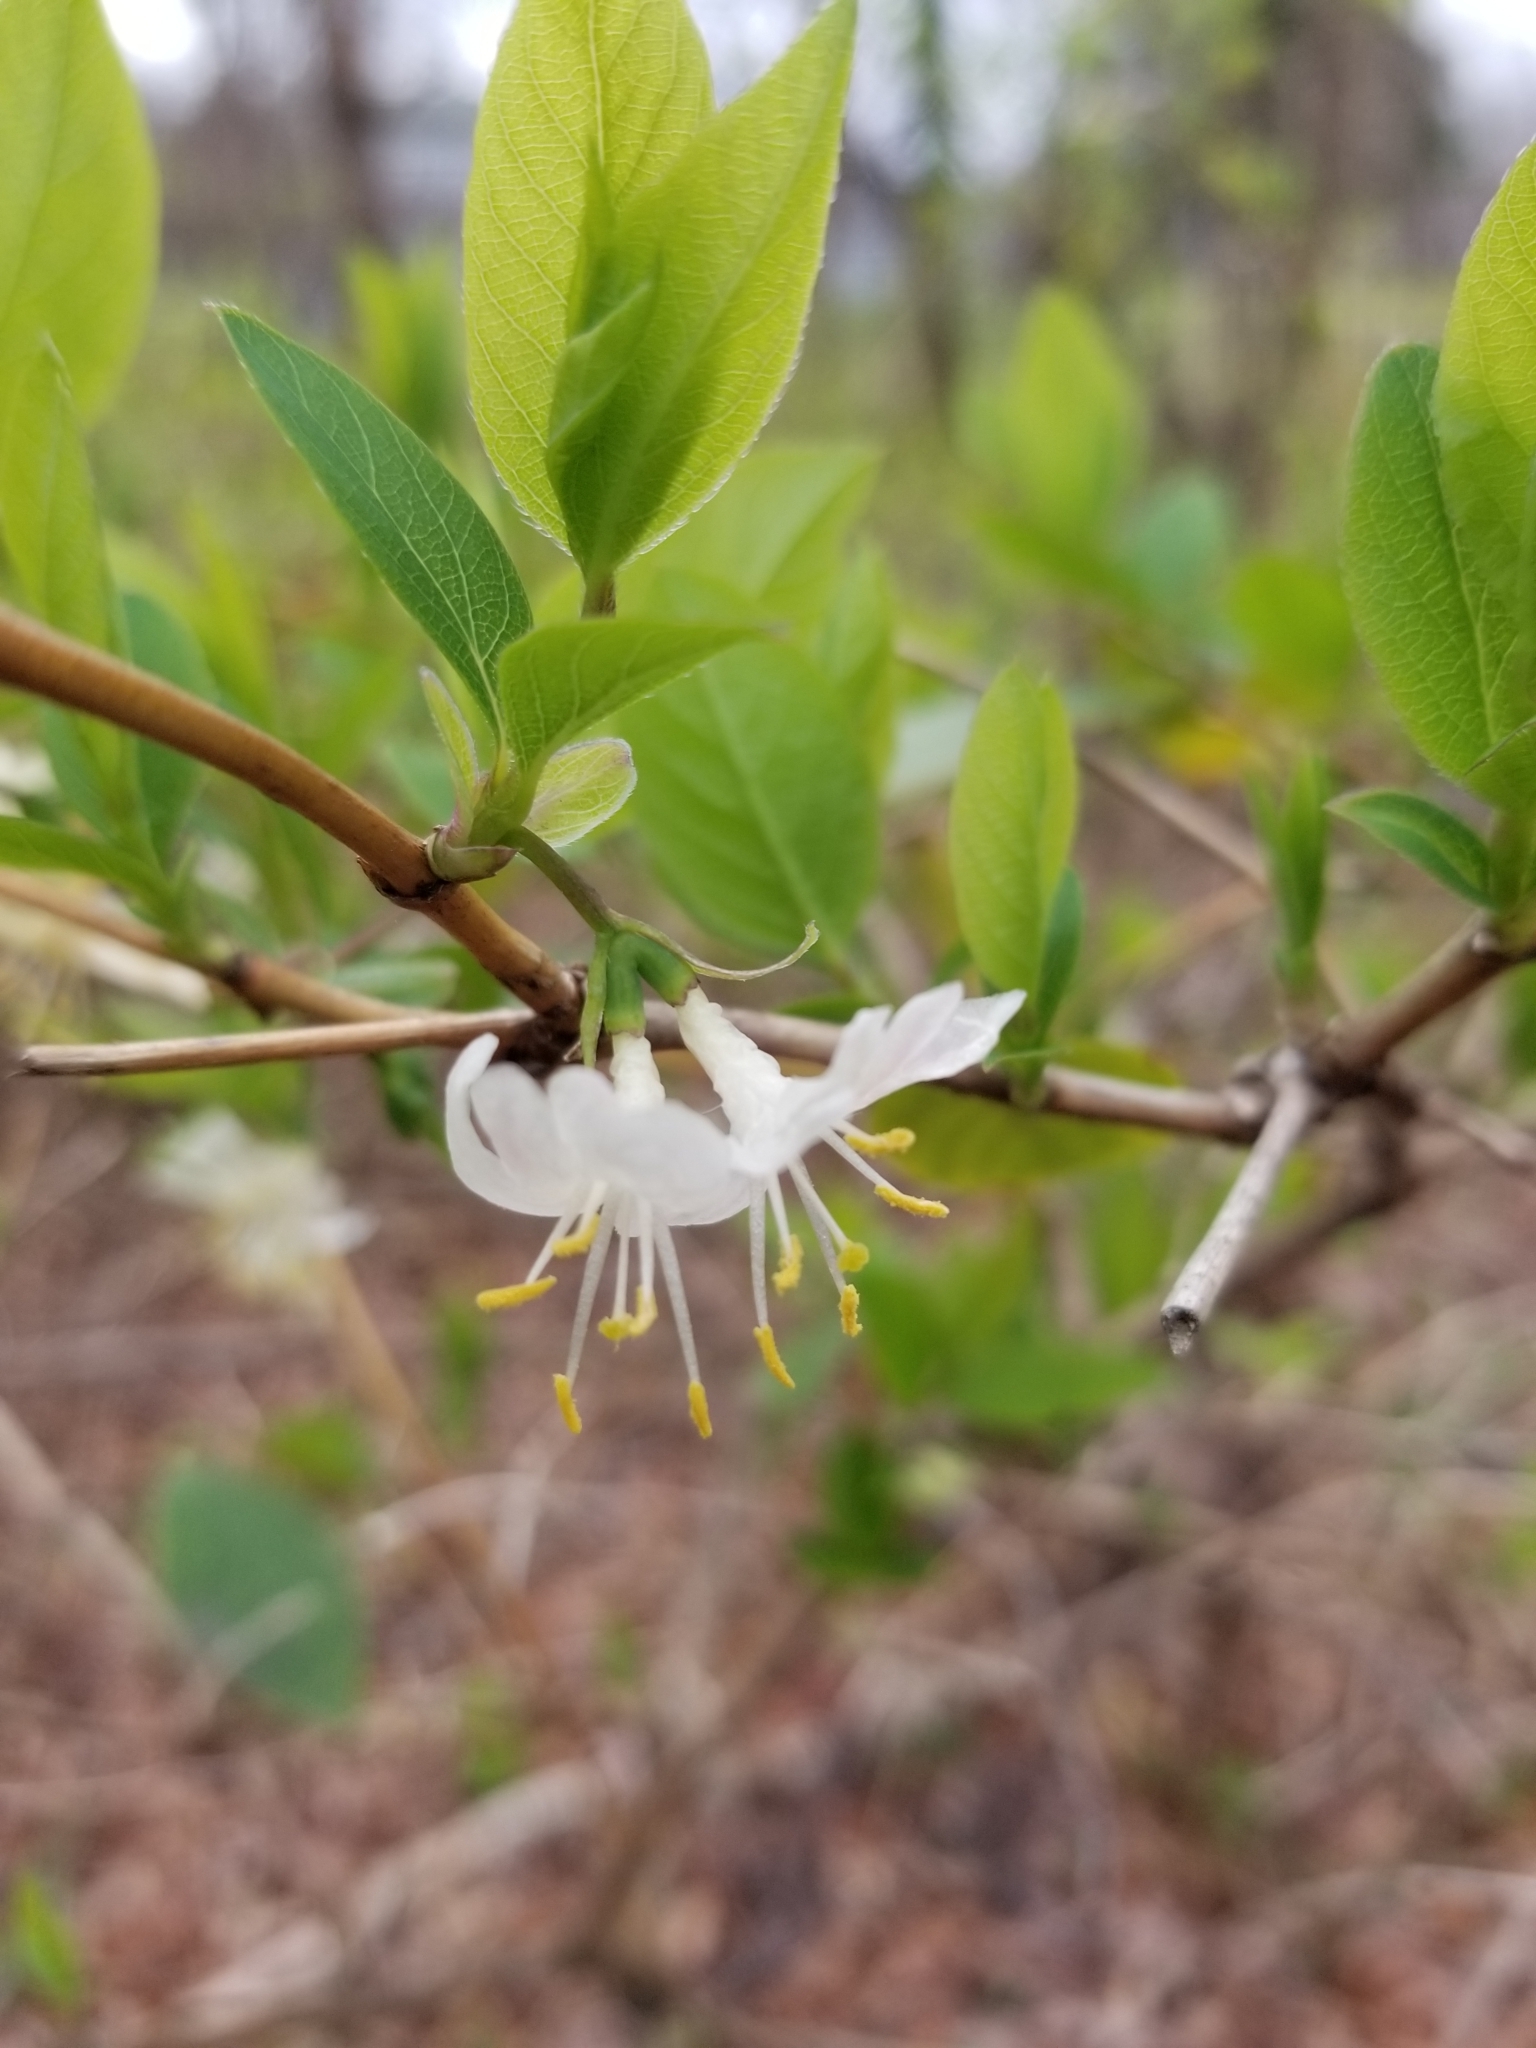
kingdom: Plantae
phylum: Tracheophyta
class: Magnoliopsida
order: Dipsacales
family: Caprifoliaceae
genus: Lonicera
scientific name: Lonicera fragrantissima
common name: Fragrant honeysuckle
